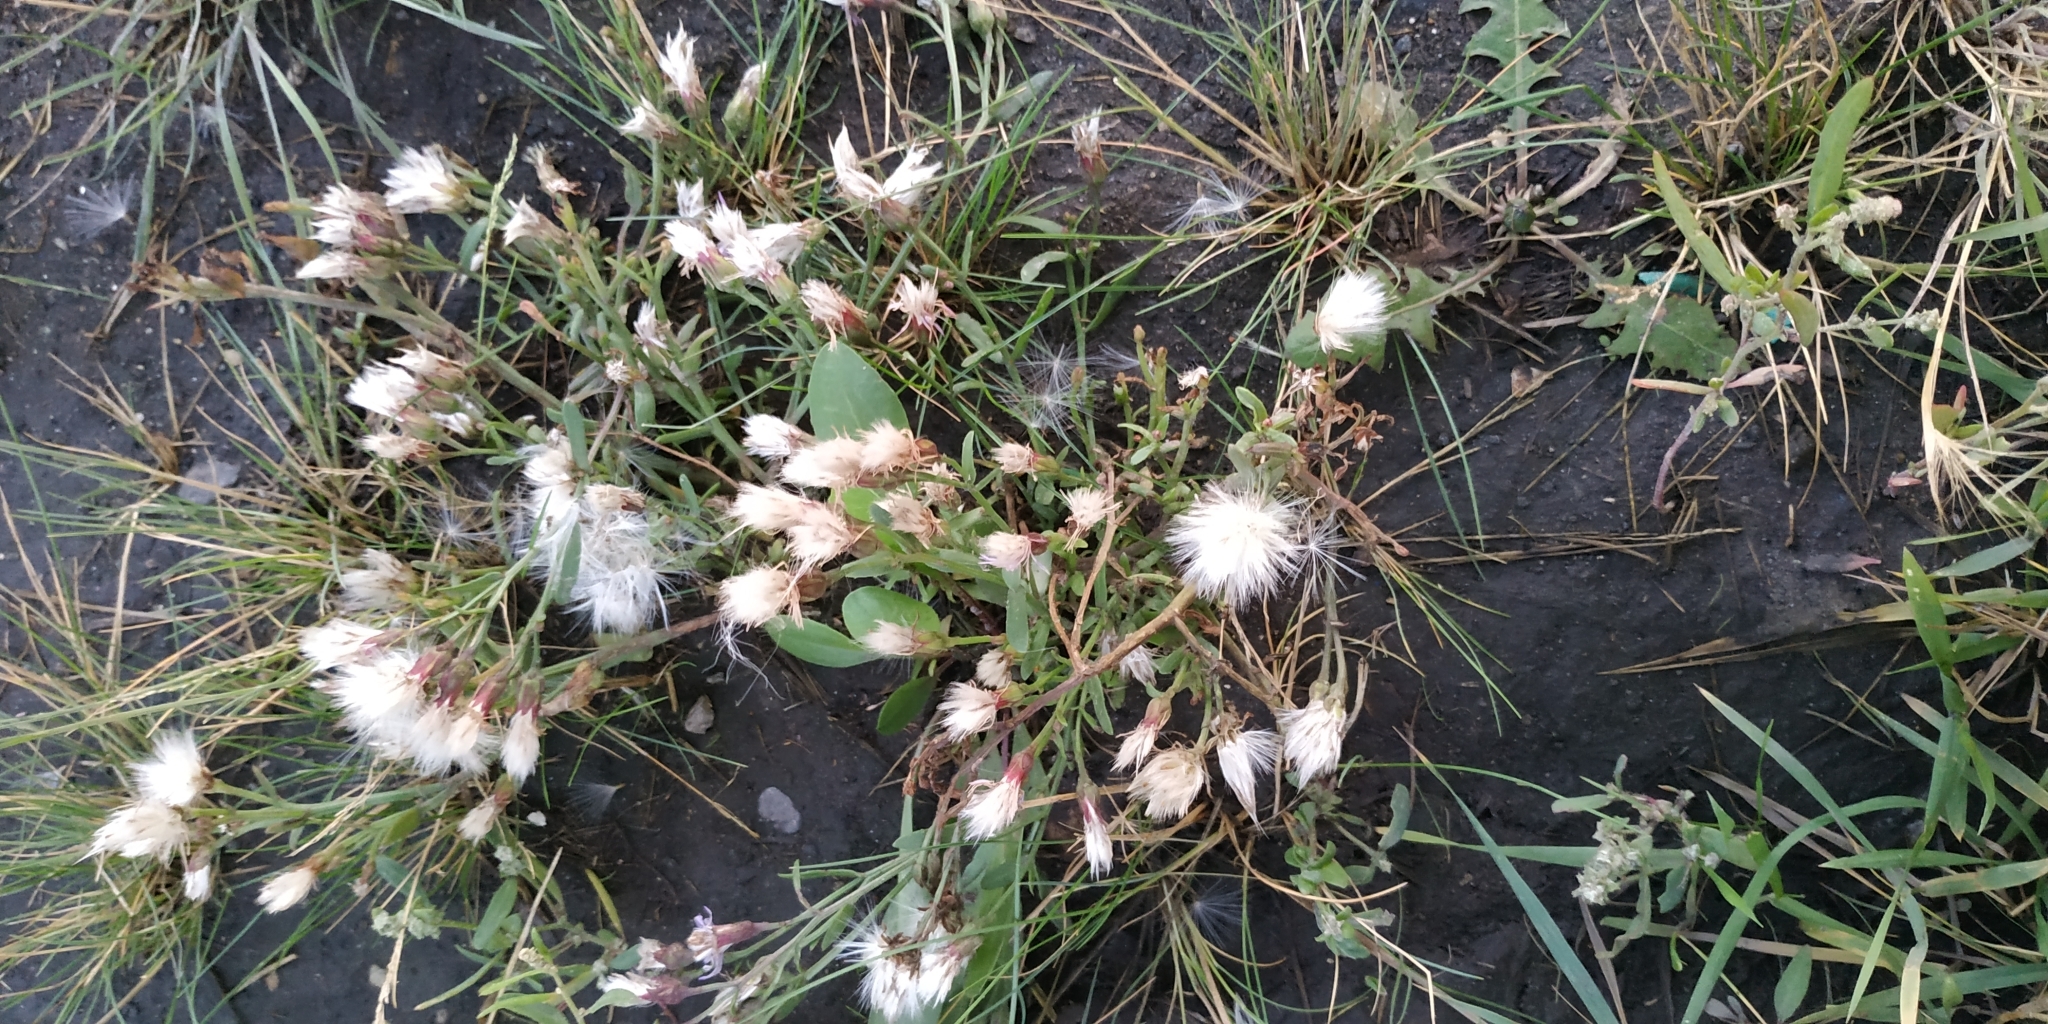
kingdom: Plantae
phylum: Tracheophyta
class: Magnoliopsida
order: Asterales
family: Asteraceae
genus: Tripolium
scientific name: Tripolium pannonicum
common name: Sea aster
